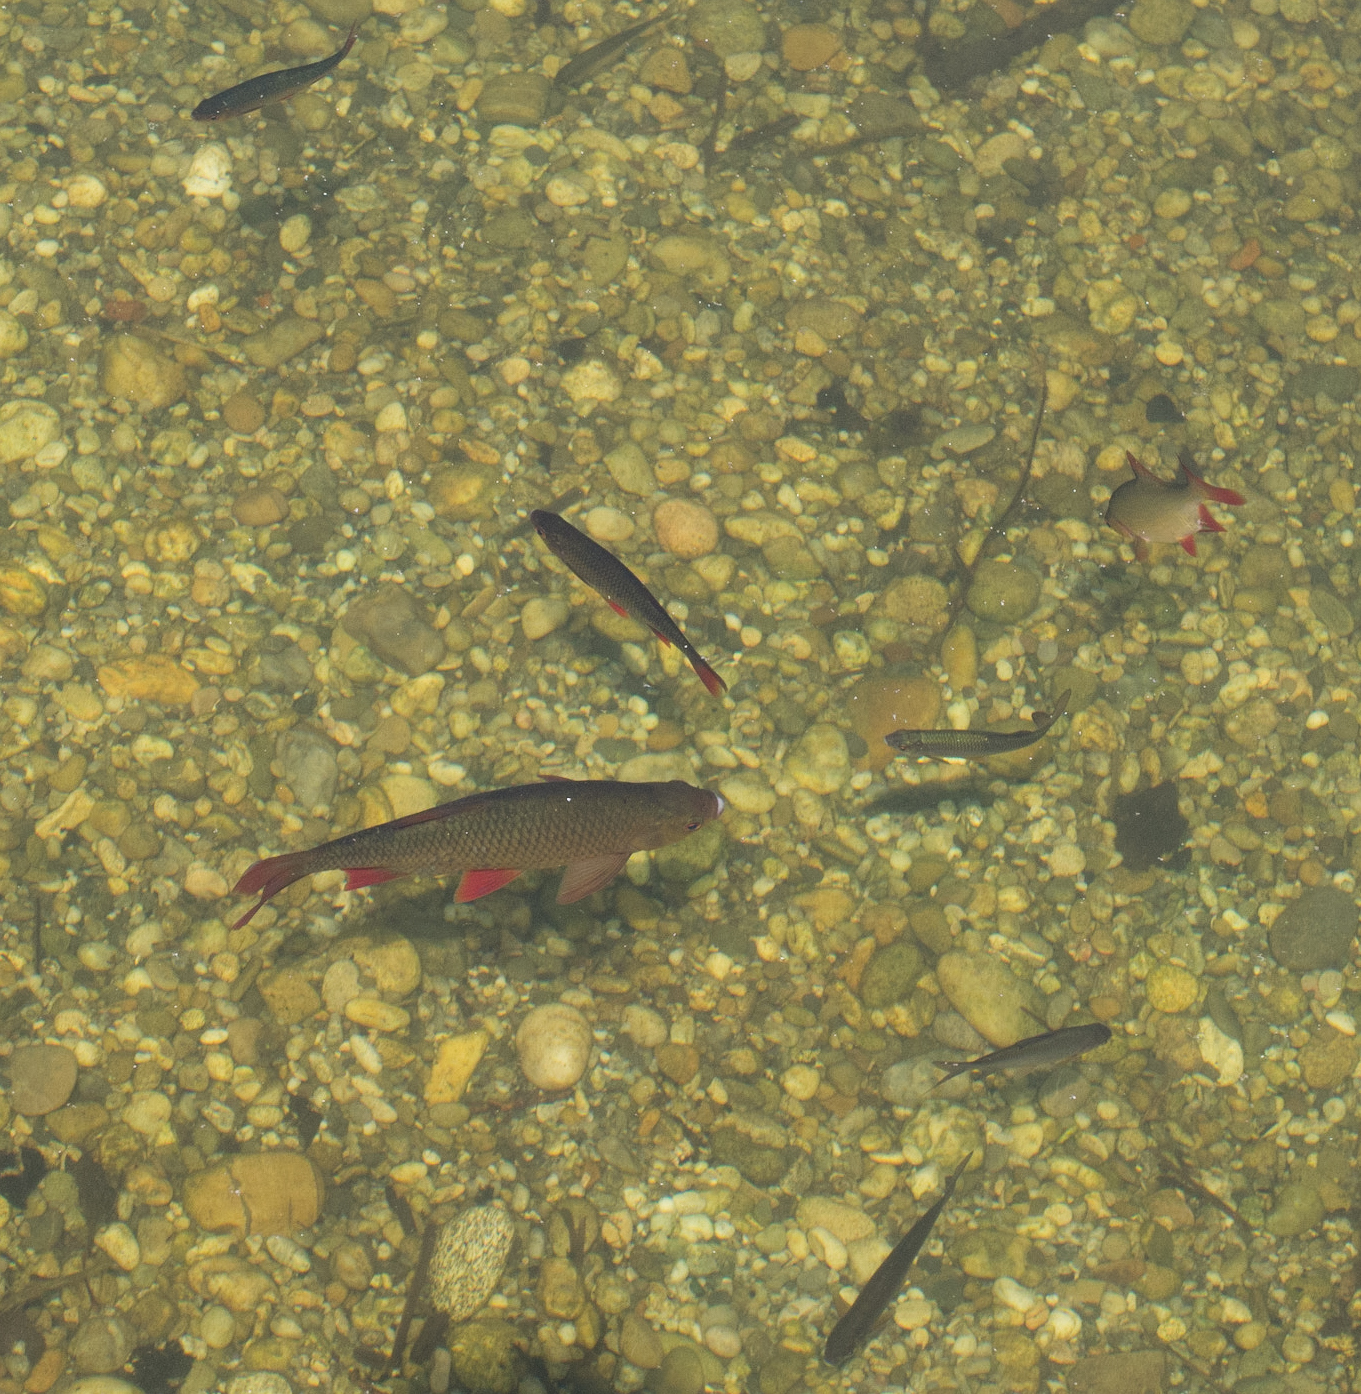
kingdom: Animalia
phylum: Chordata
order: Cypriniformes
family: Cyprinidae
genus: Scardinius
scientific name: Scardinius erythrophthalmus
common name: Rudd
